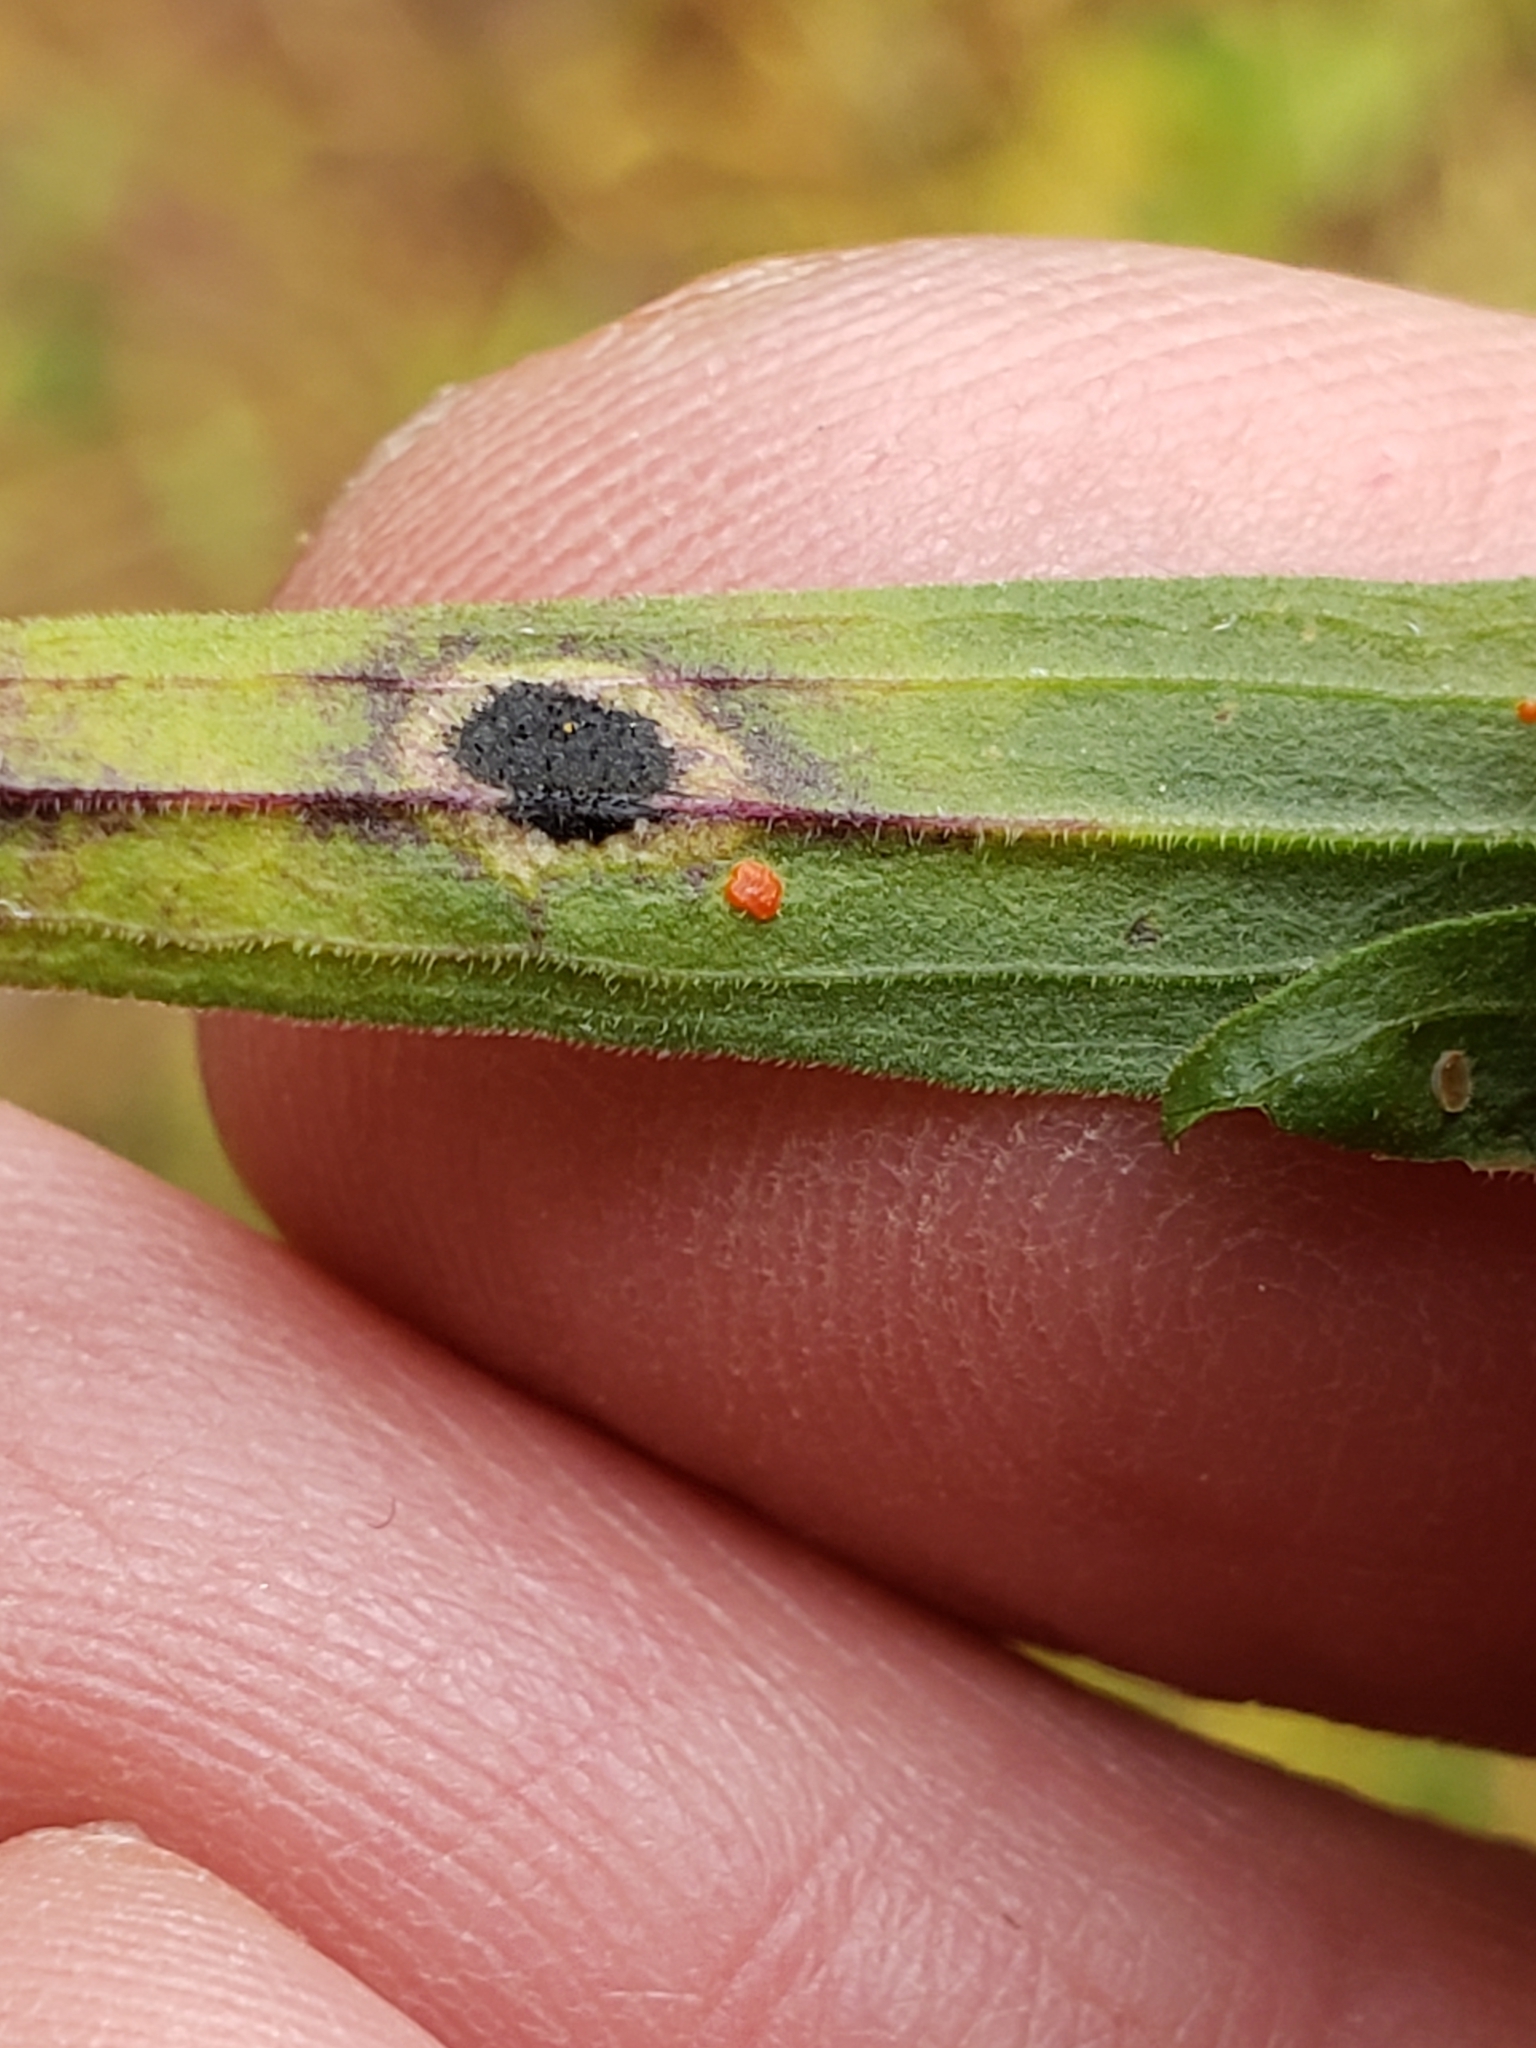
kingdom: Animalia
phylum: Arthropoda
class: Insecta
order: Diptera
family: Cecidomyiidae
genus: Asteromyia
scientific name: Asteromyia euthamiae
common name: Euthamia leaf gall midge
